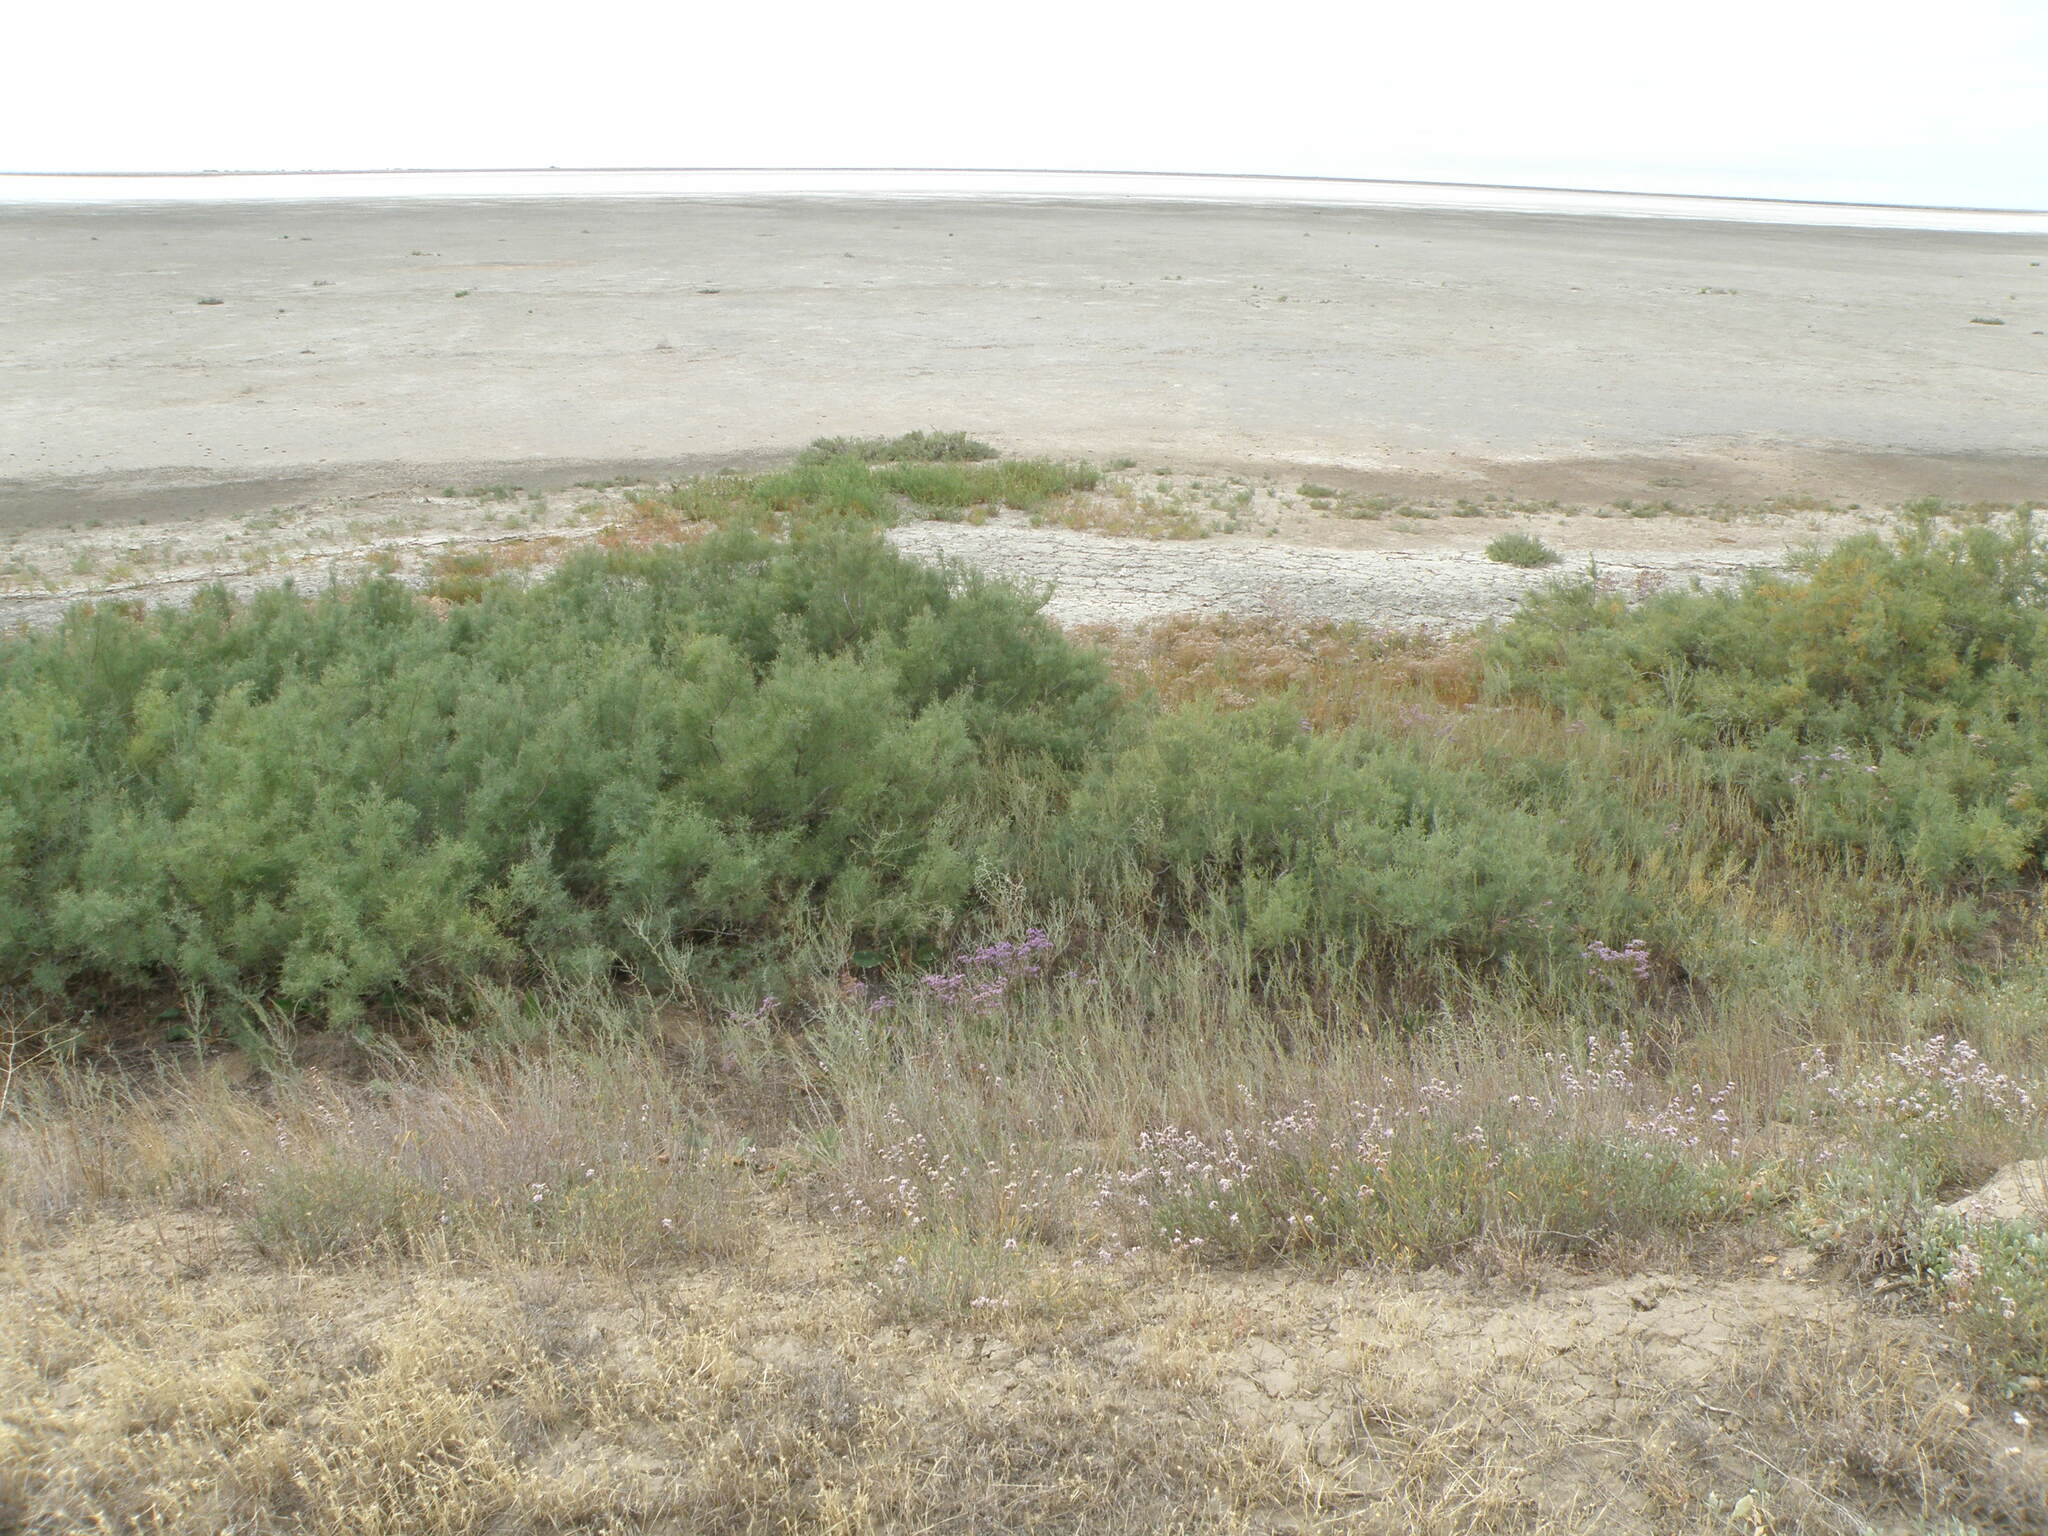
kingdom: Plantae
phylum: Tracheophyta
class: Magnoliopsida
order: Caryophyllales
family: Tamaricaceae
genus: Tamarix
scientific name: Tamarix ramosissima
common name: Pink tamarisk
